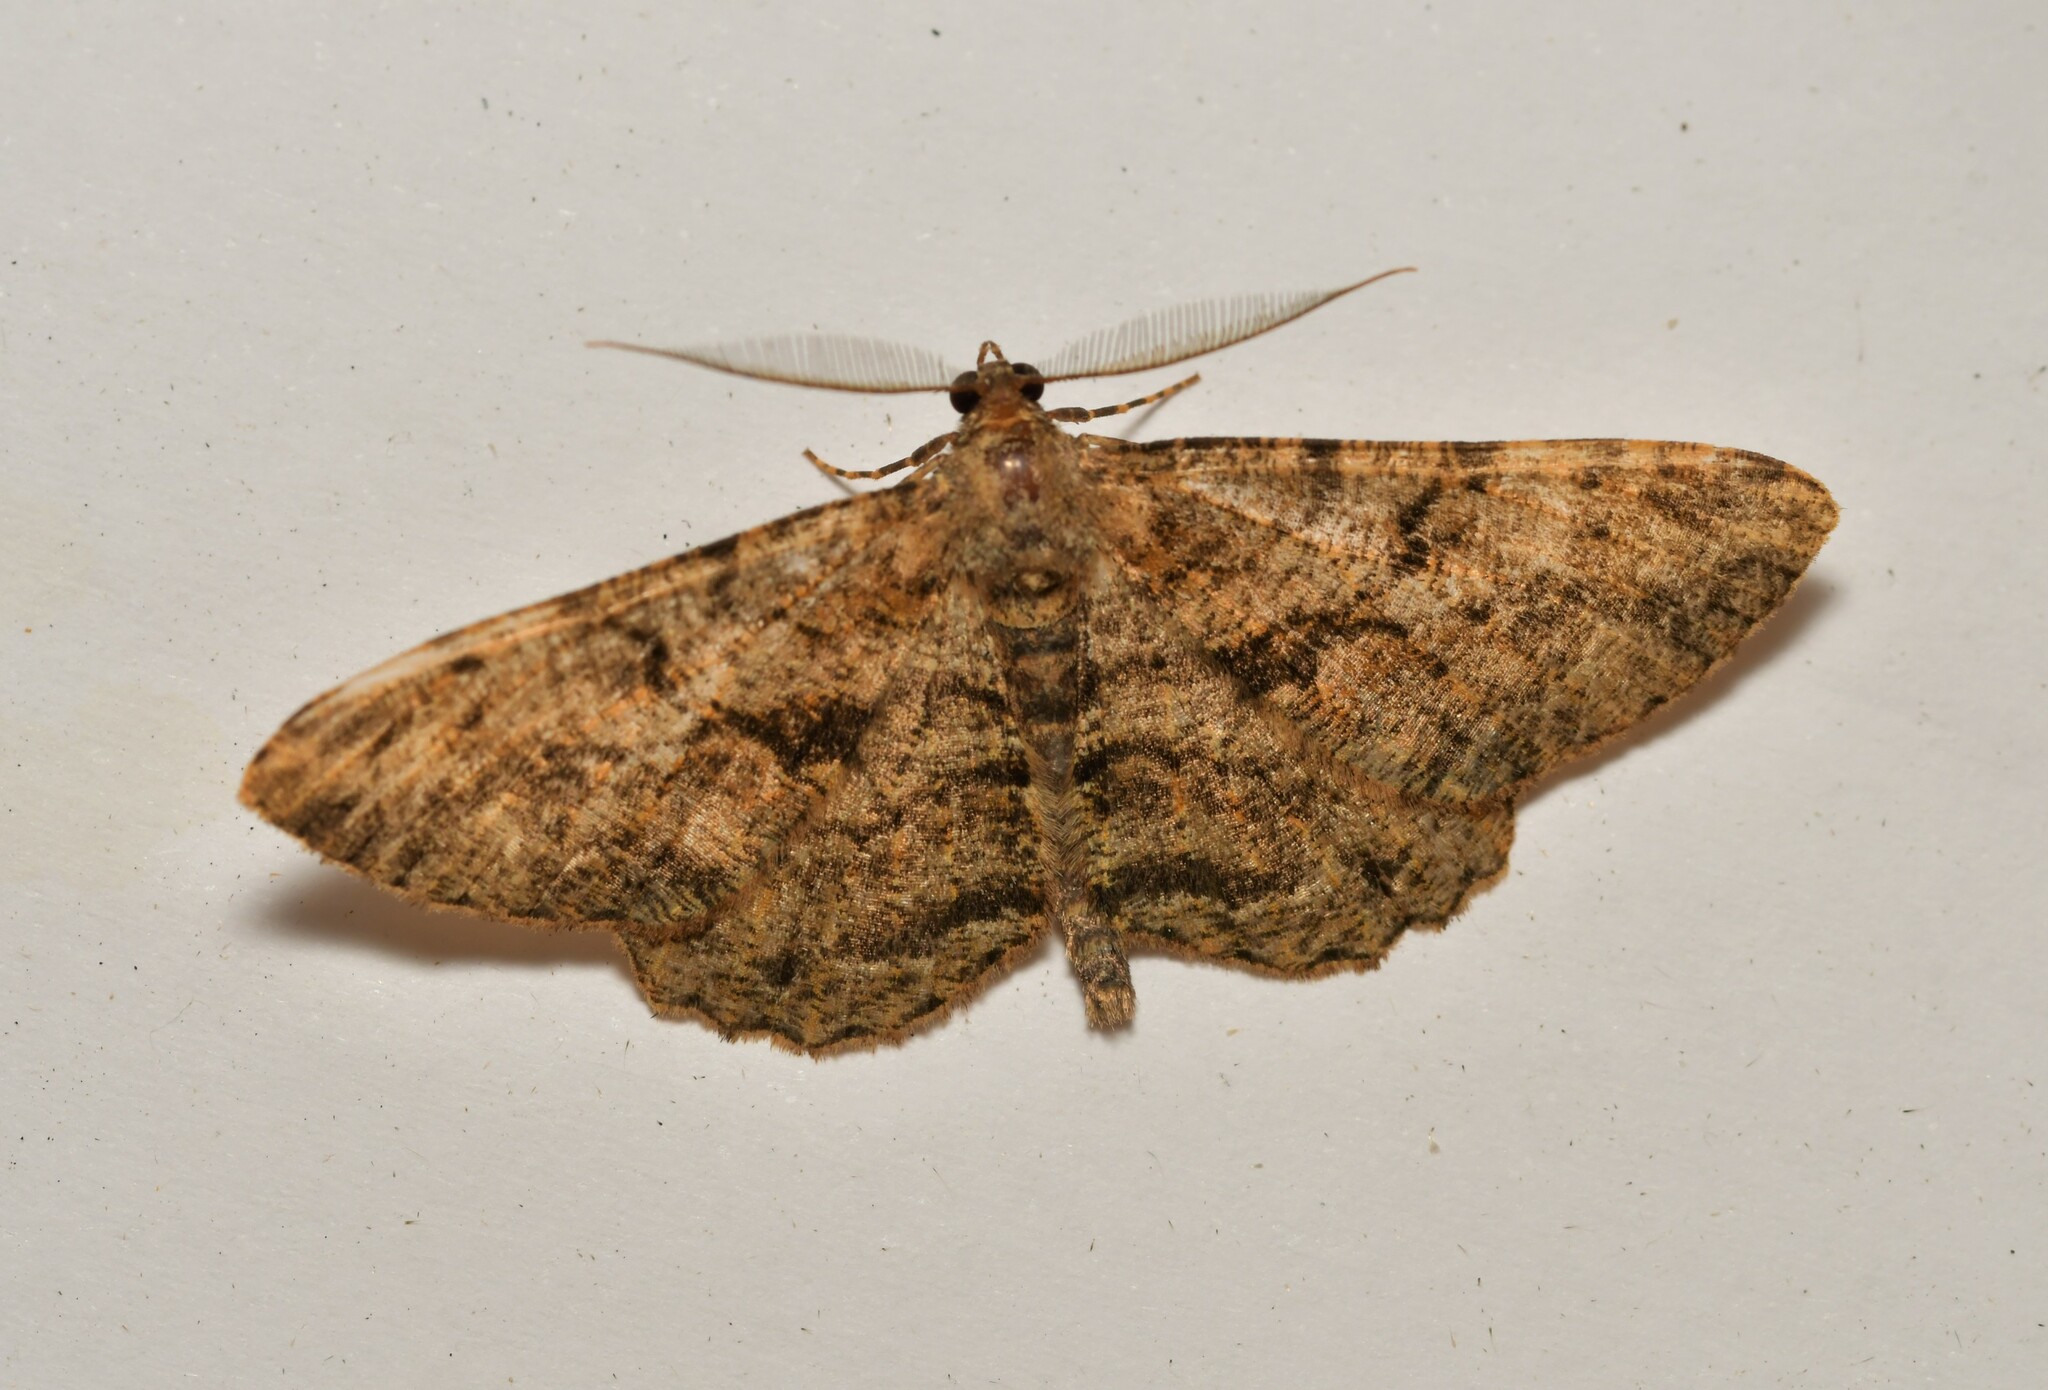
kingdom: Animalia
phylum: Arthropoda
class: Insecta
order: Lepidoptera
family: Geometridae
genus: Peribatodes
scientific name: Peribatodes rhomboidaria
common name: Willow beauty
